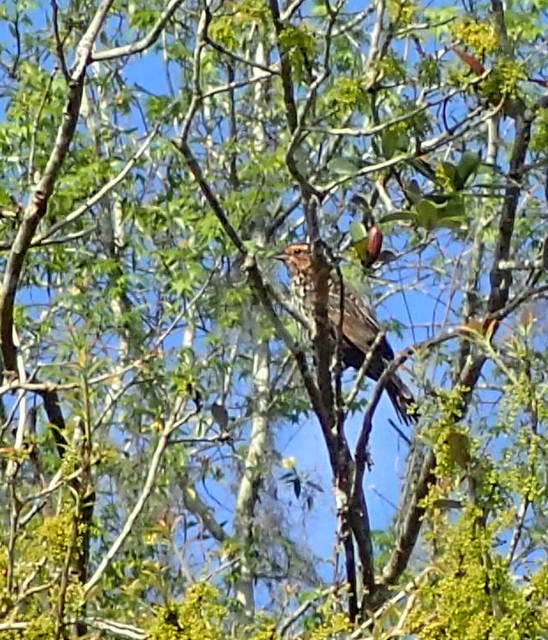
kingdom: Animalia
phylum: Chordata
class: Aves
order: Passeriformes
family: Icteridae
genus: Agelaius
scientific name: Agelaius phoeniceus
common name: Red-winged blackbird
